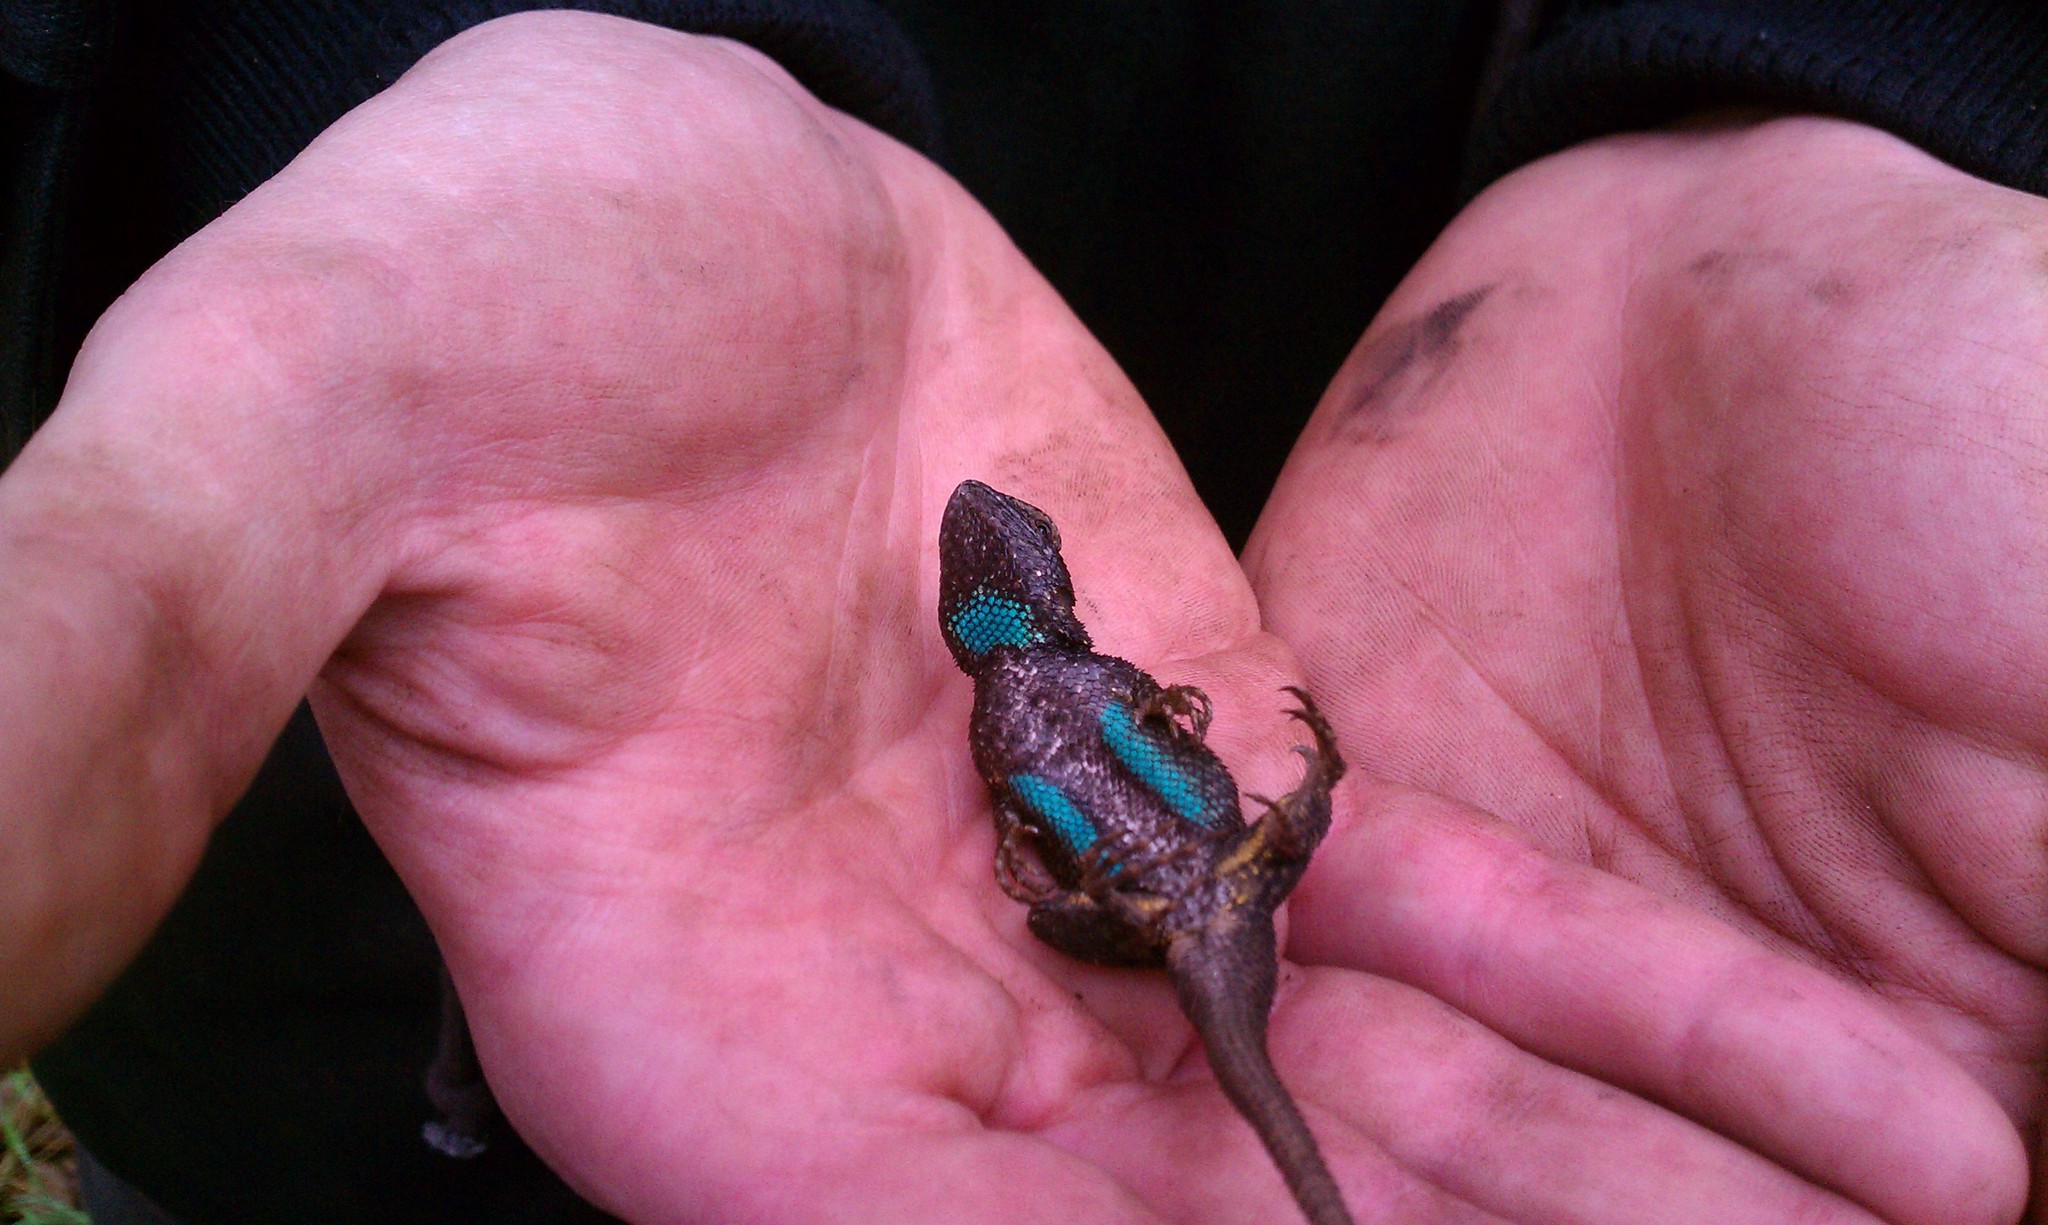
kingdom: Animalia
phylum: Chordata
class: Squamata
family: Phrynosomatidae
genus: Sceloporus
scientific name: Sceloporus occidentalis
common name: Western fence lizard
